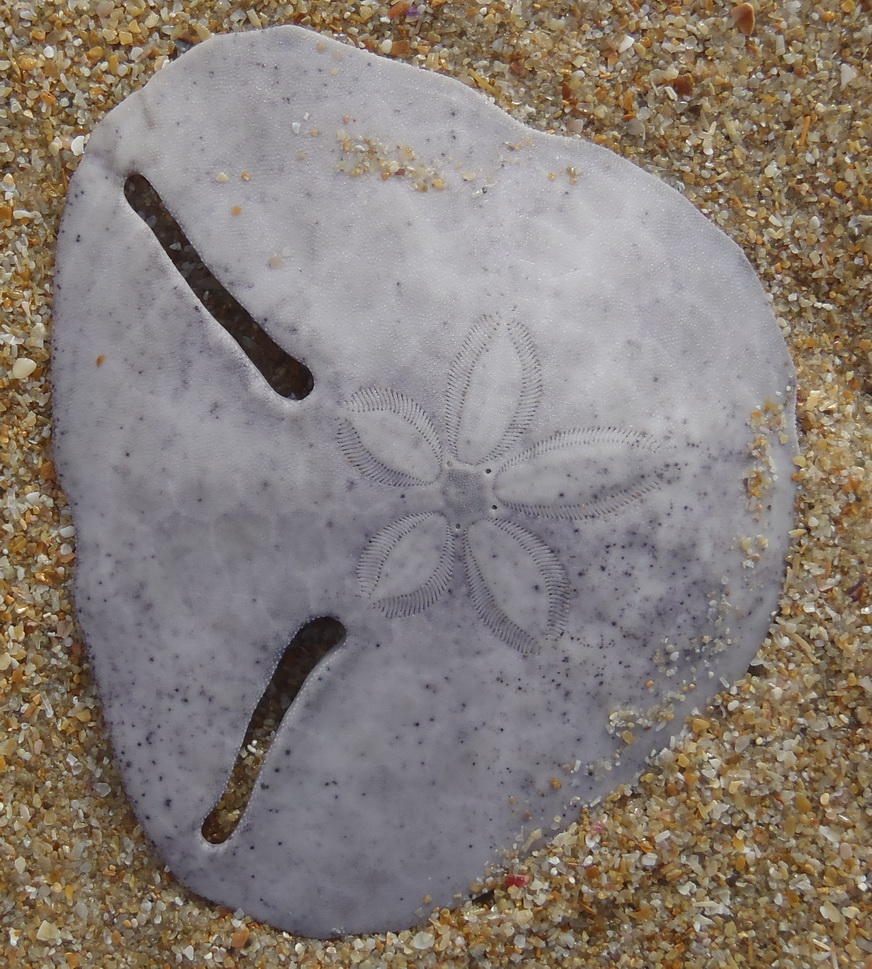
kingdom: Animalia
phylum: Echinodermata
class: Echinoidea
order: Echinolampadacea
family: Astriclypeidae
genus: Echinodiscus
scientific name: Echinodiscus bisperforatus
